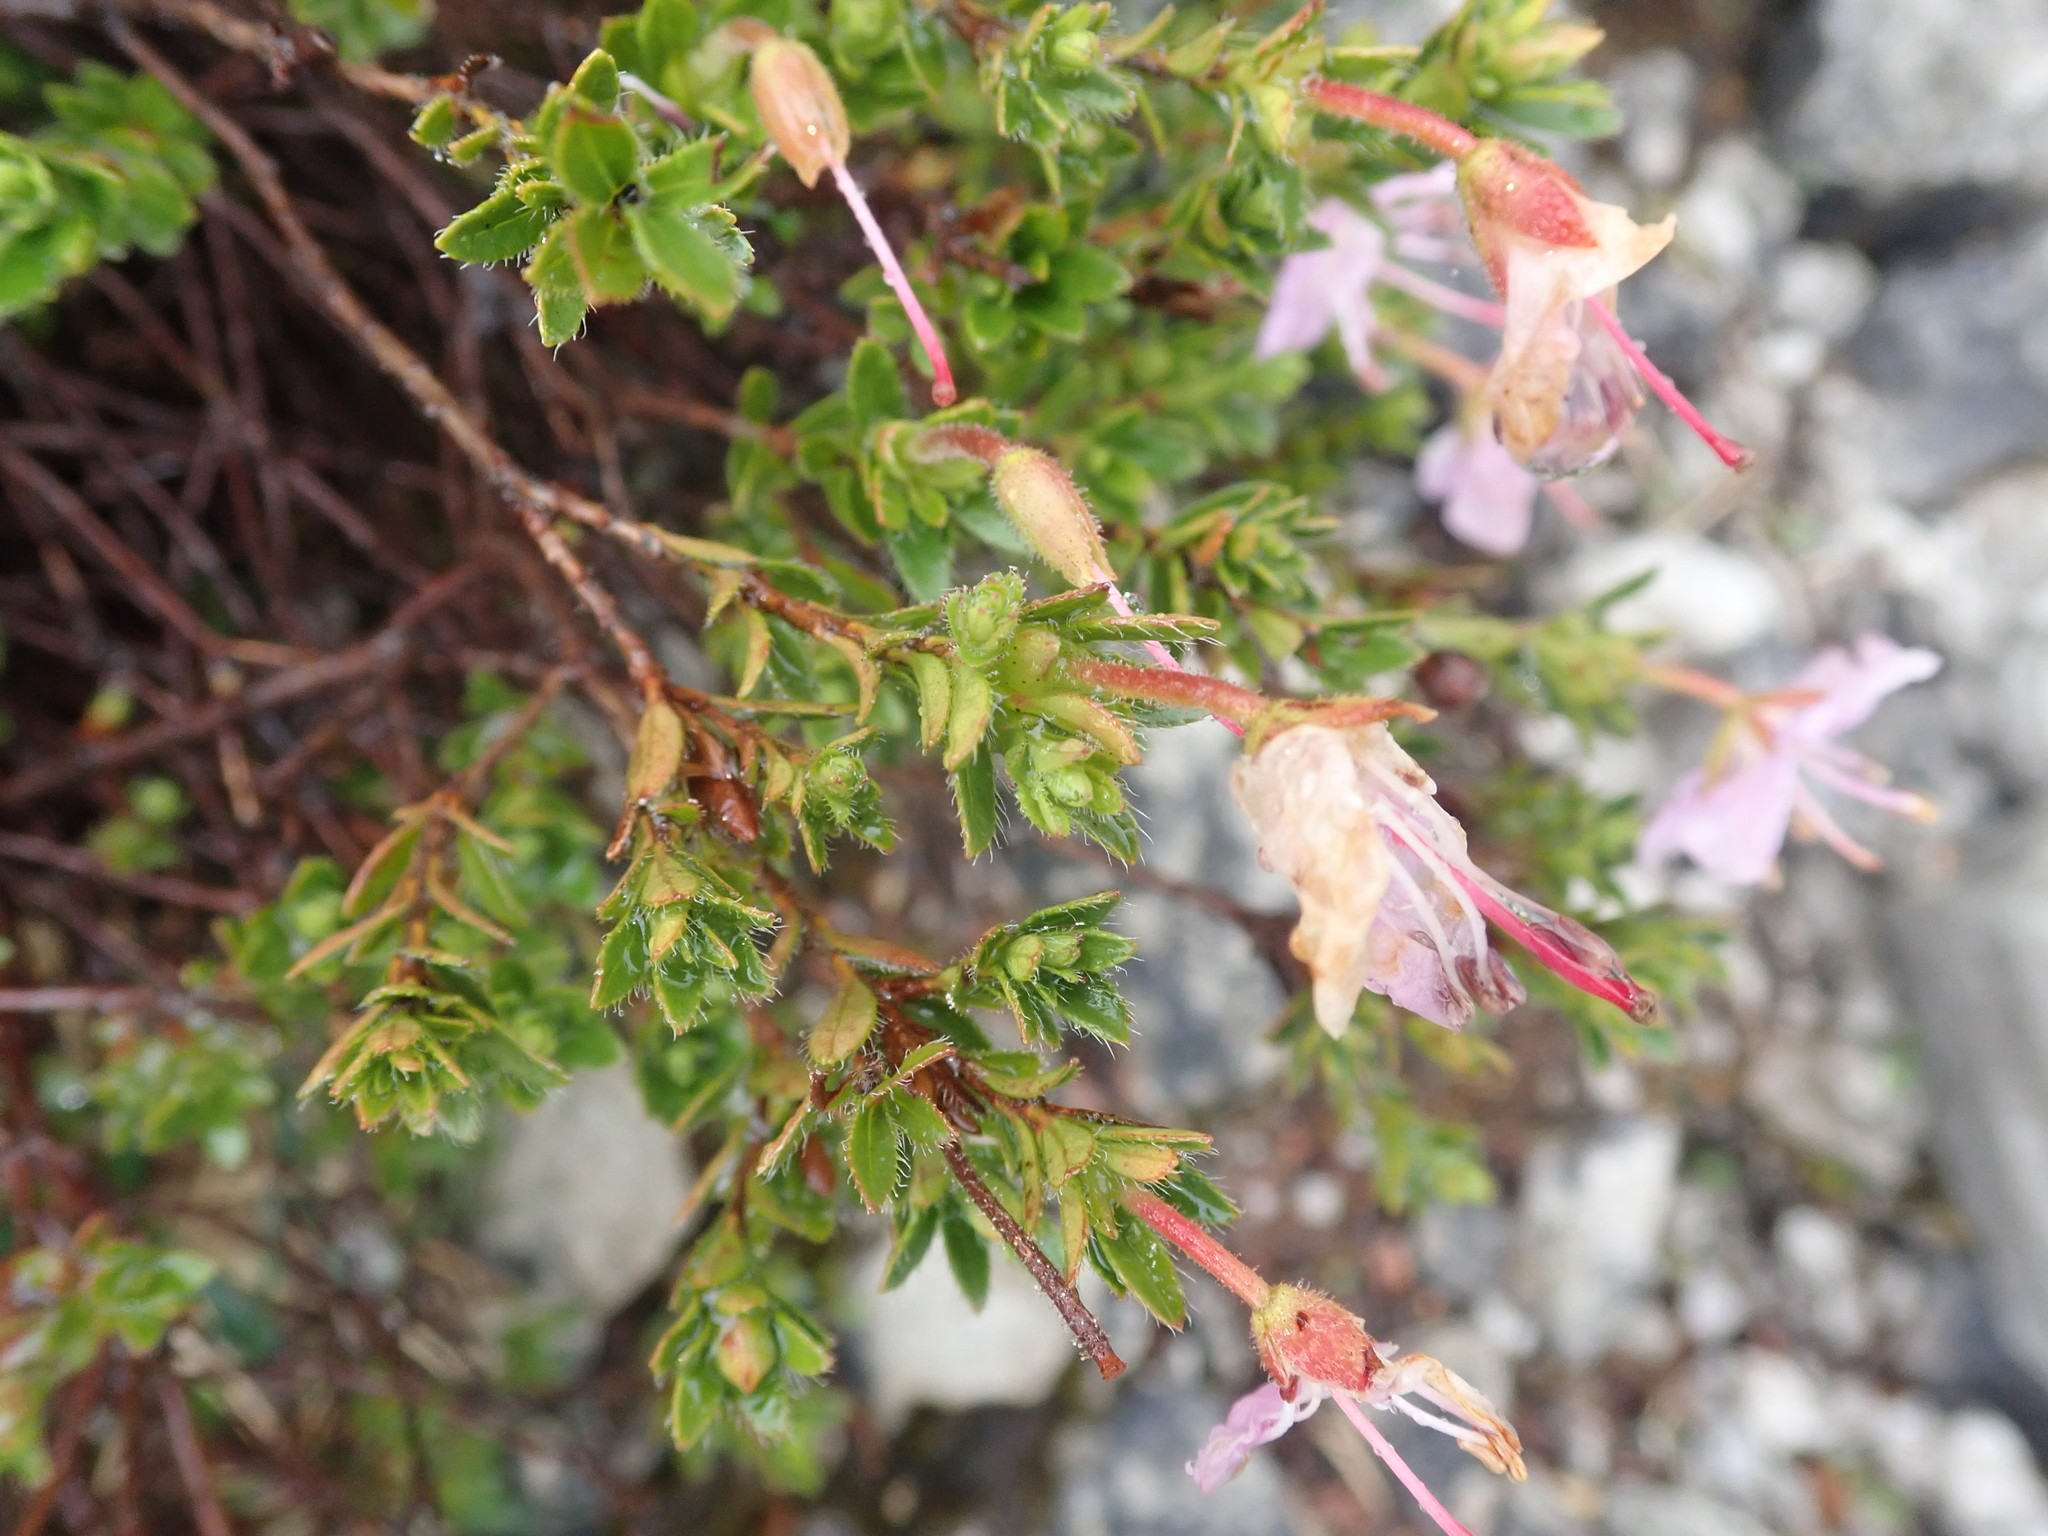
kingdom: Plantae
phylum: Tracheophyta
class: Magnoliopsida
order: Ericales
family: Ericaceae
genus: Rhodothamnus
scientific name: Rhodothamnus chamaecistus
